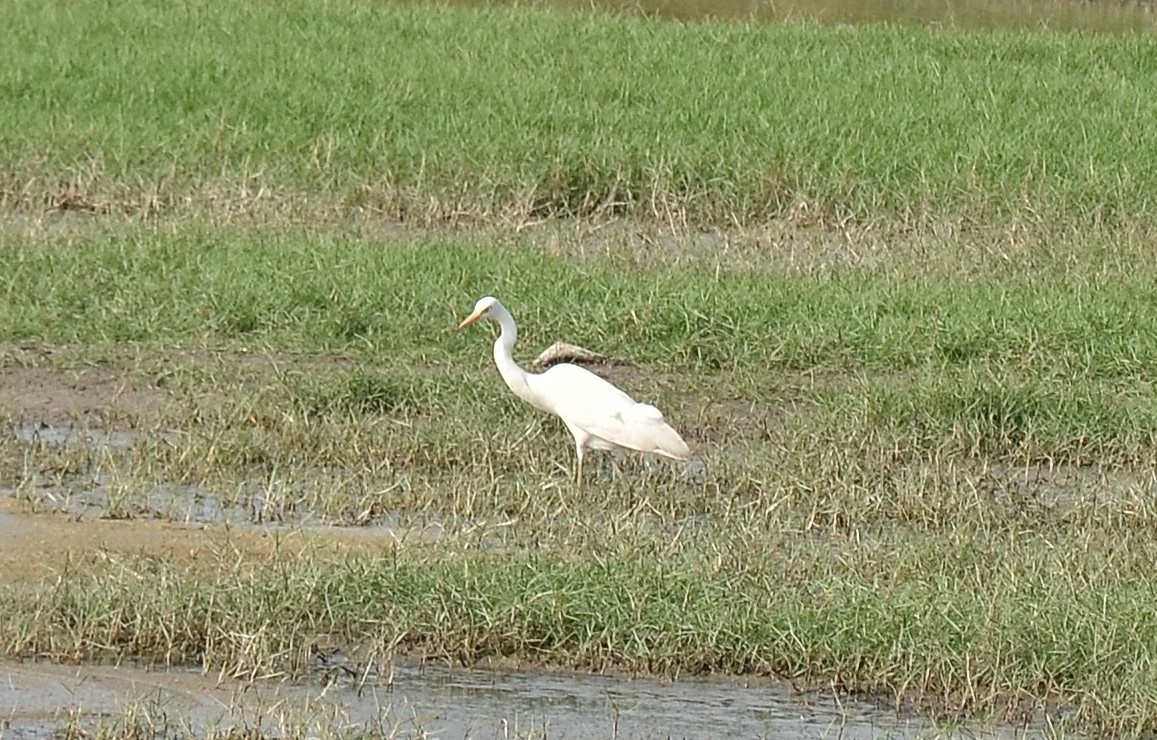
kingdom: Animalia
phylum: Chordata
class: Aves
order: Pelecaniformes
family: Ardeidae
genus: Egretta
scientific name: Egretta intermedia
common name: Intermediate egret
